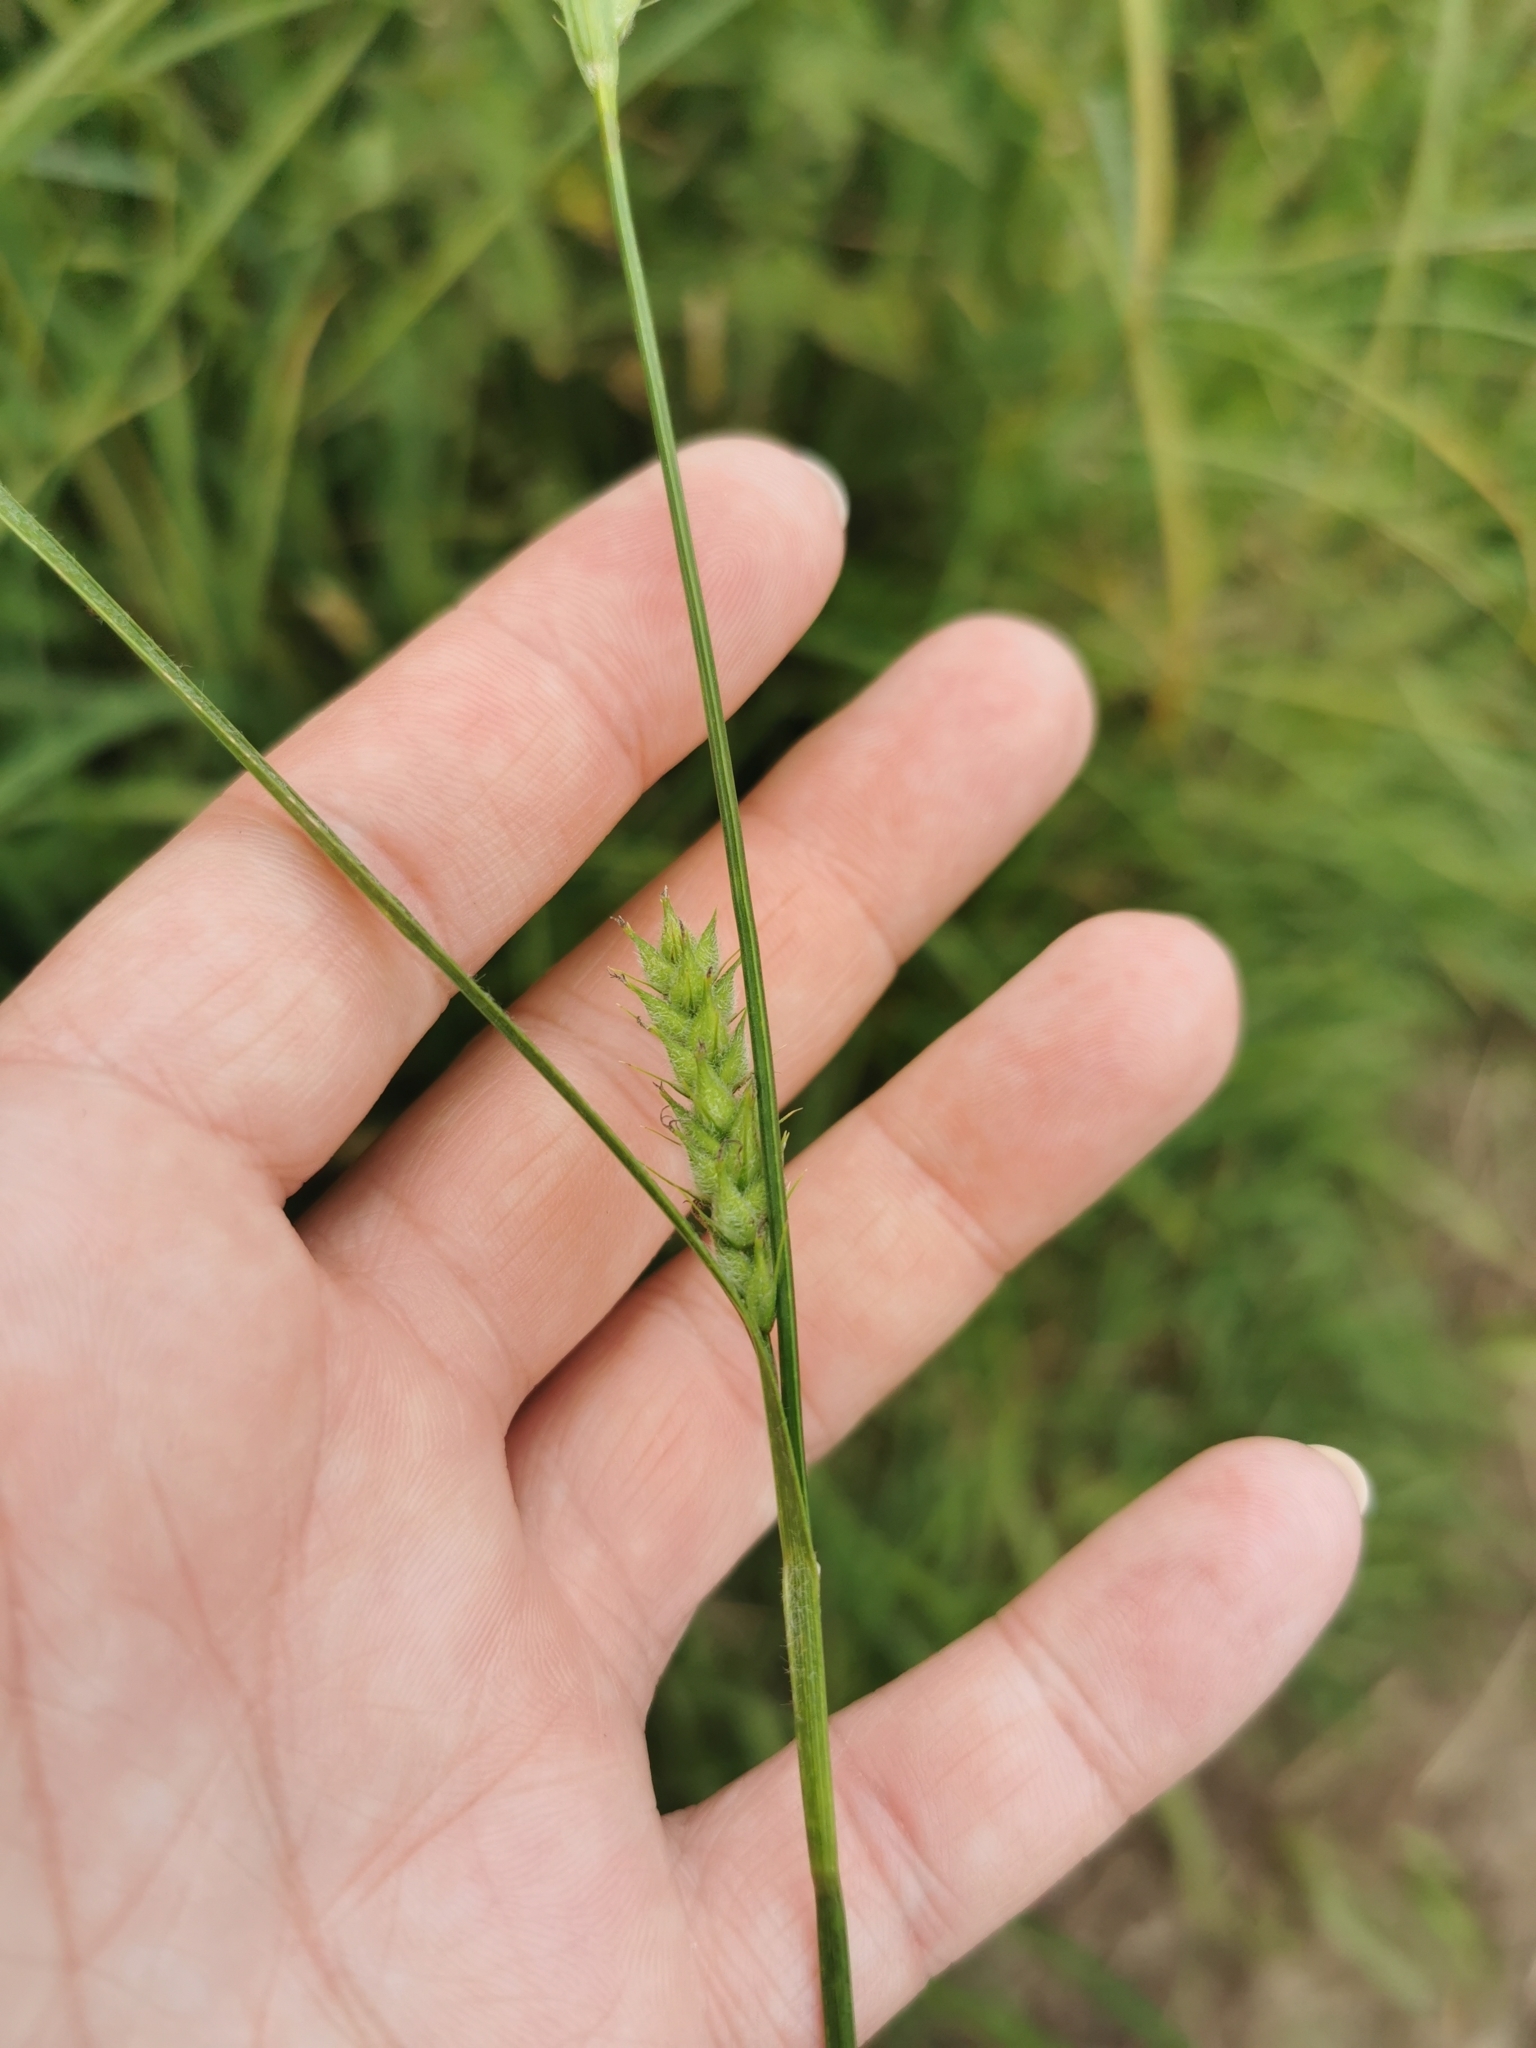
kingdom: Plantae
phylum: Tracheophyta
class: Liliopsida
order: Poales
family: Cyperaceae
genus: Carex
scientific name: Carex hirta
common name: Hairy sedge
